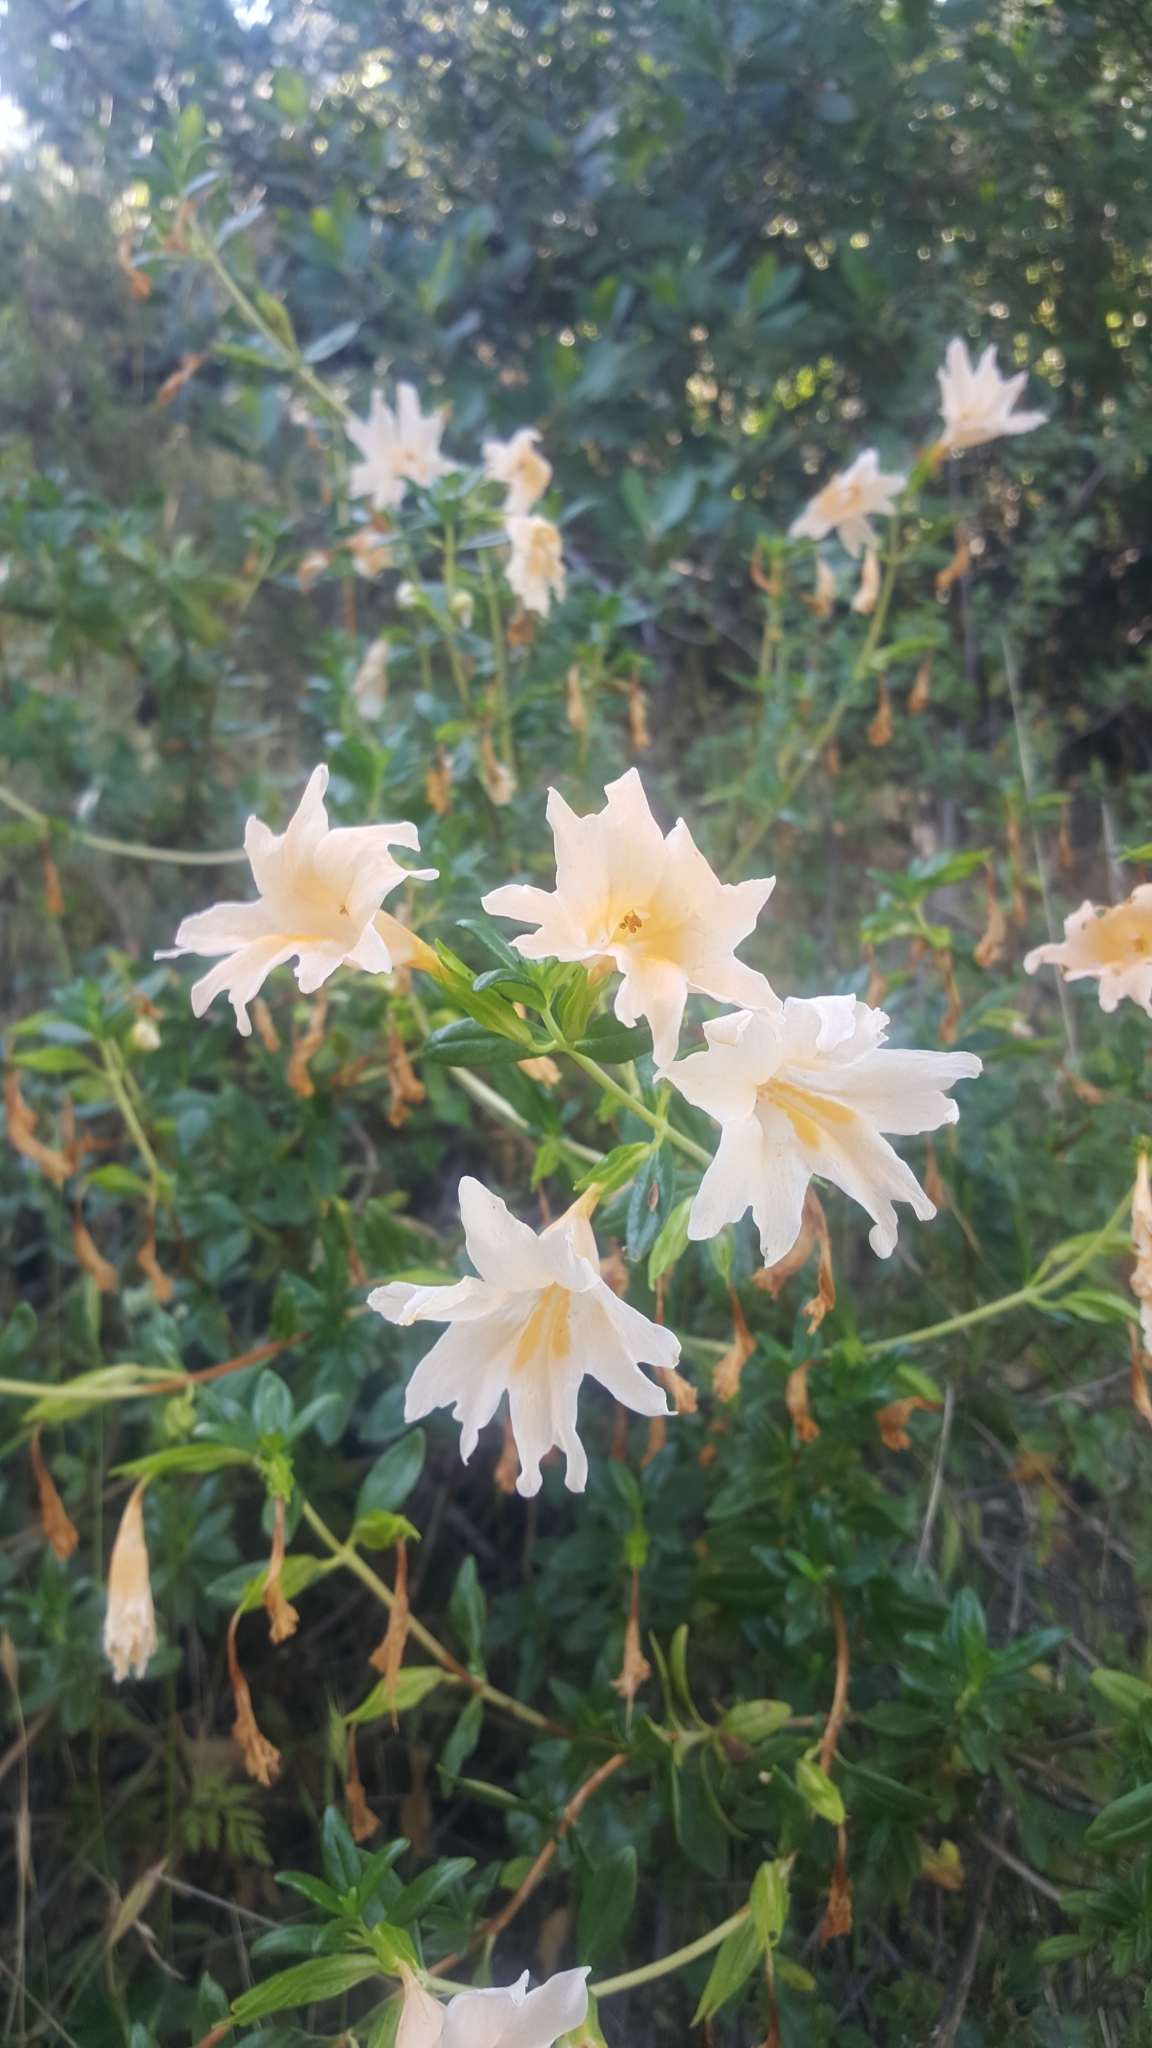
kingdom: Plantae
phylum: Tracheophyta
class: Magnoliopsida
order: Lamiales
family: Phrymaceae
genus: Diplacus
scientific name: Diplacus grandiflorus
